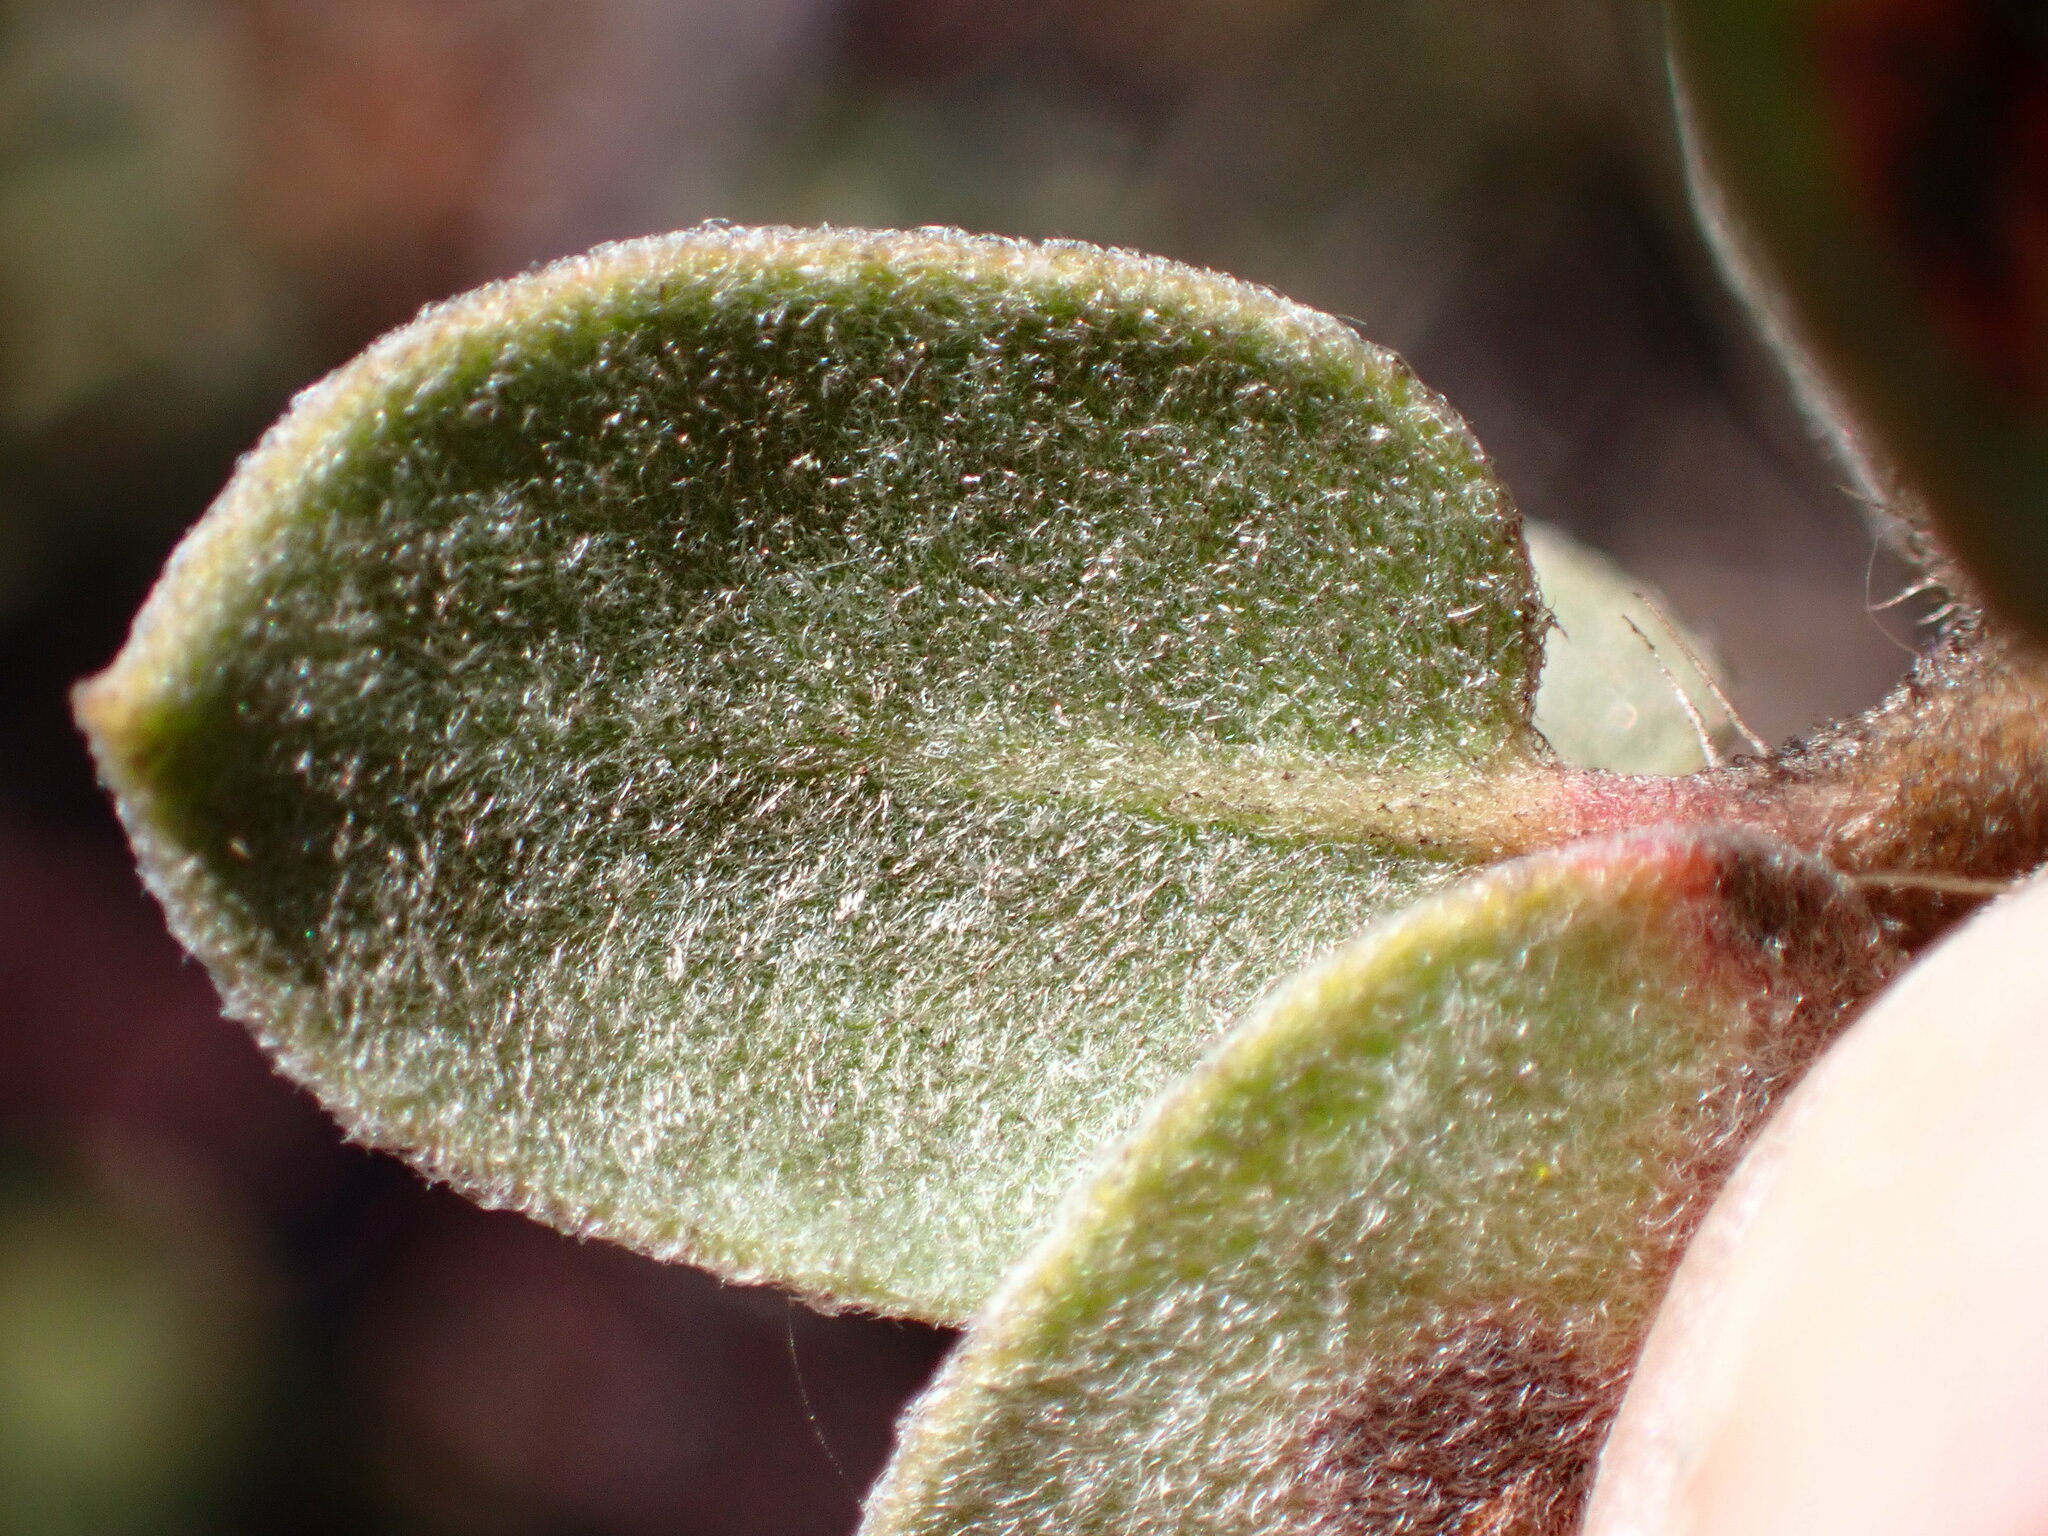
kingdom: Plantae
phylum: Tracheophyta
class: Magnoliopsida
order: Ericales
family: Ericaceae
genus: Arctostaphylos
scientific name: Arctostaphylos morroensis
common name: Morro manzanita
